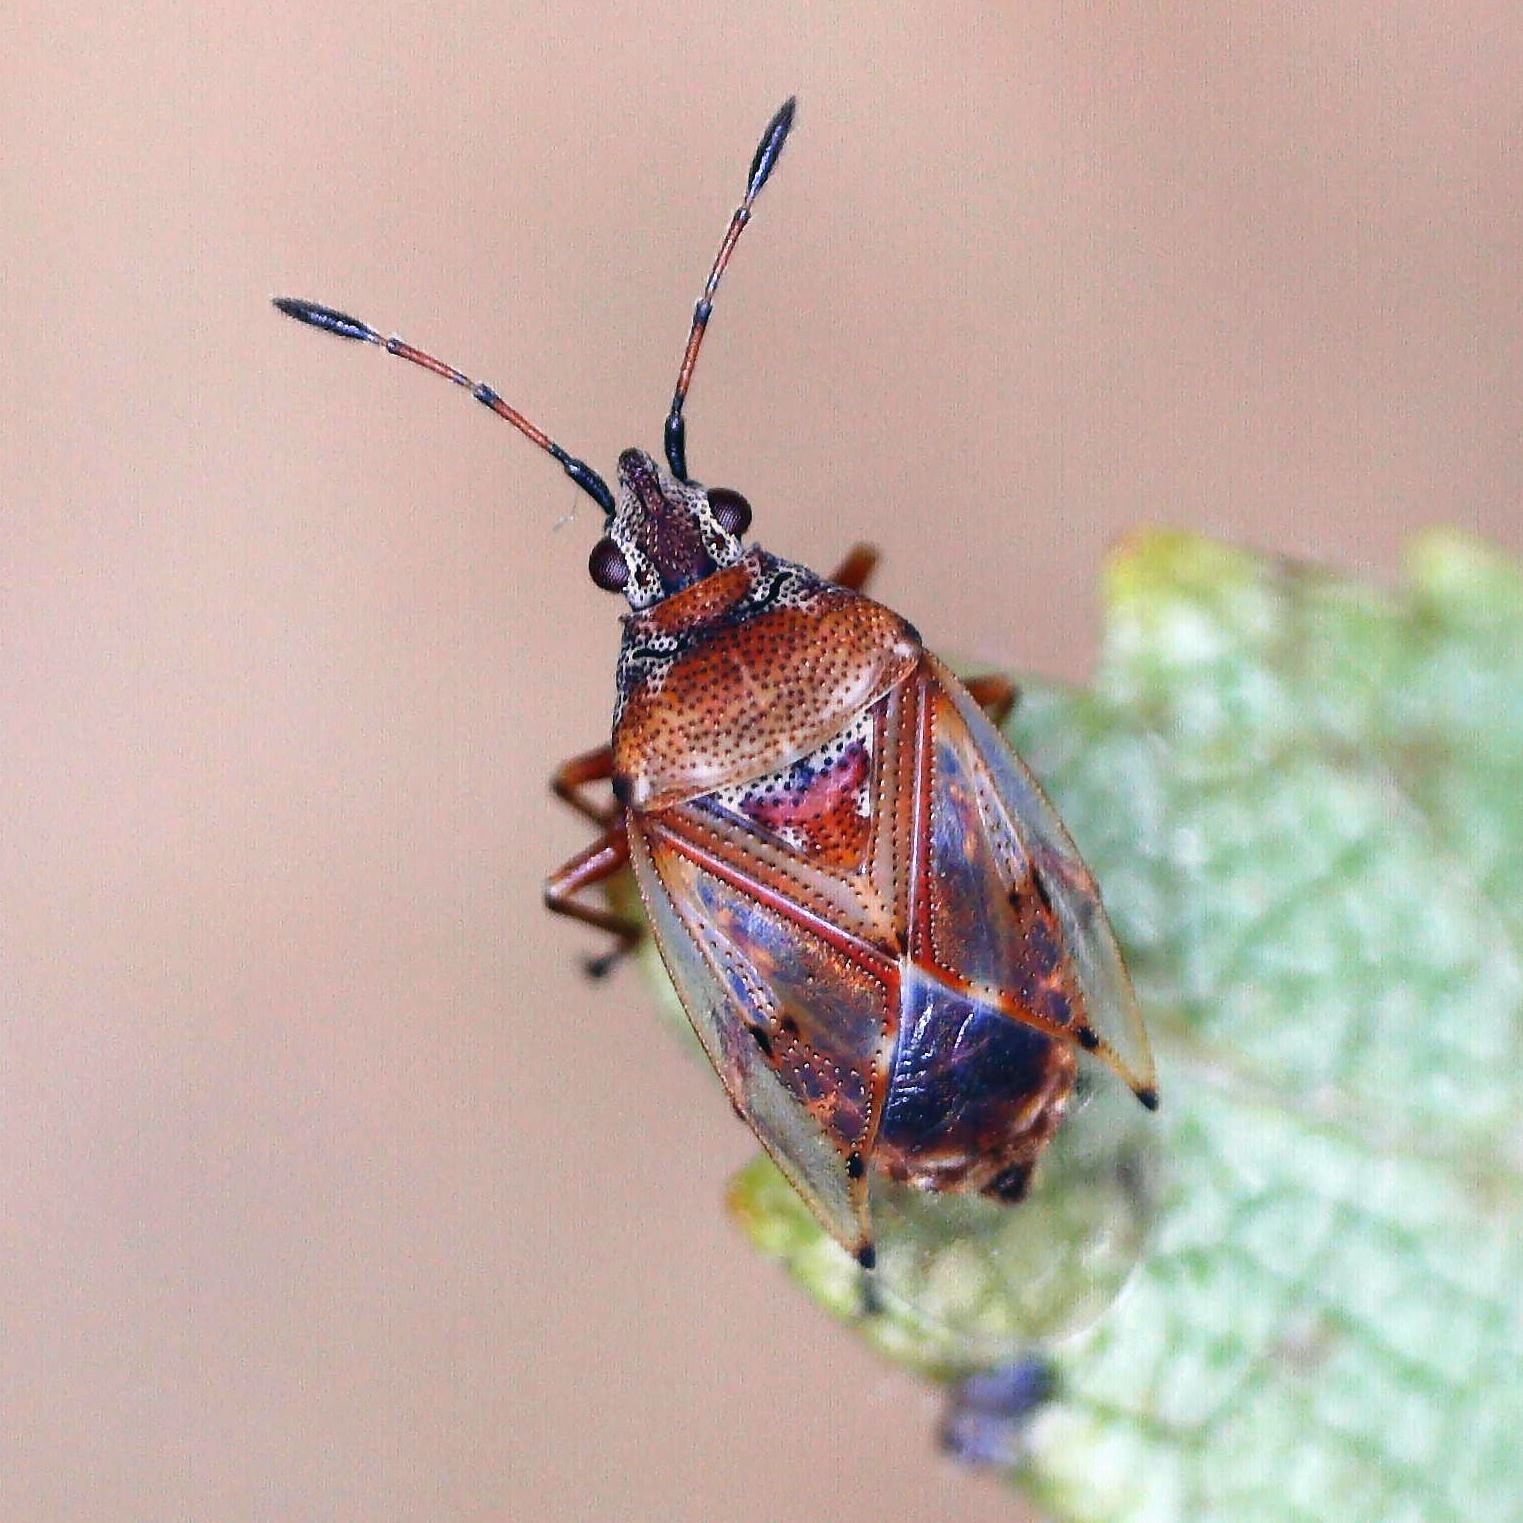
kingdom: Animalia
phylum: Arthropoda
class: Insecta
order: Hemiptera
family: Lygaeidae
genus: Kleidocerys
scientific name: Kleidocerys resedae
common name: Birch catkin bug
